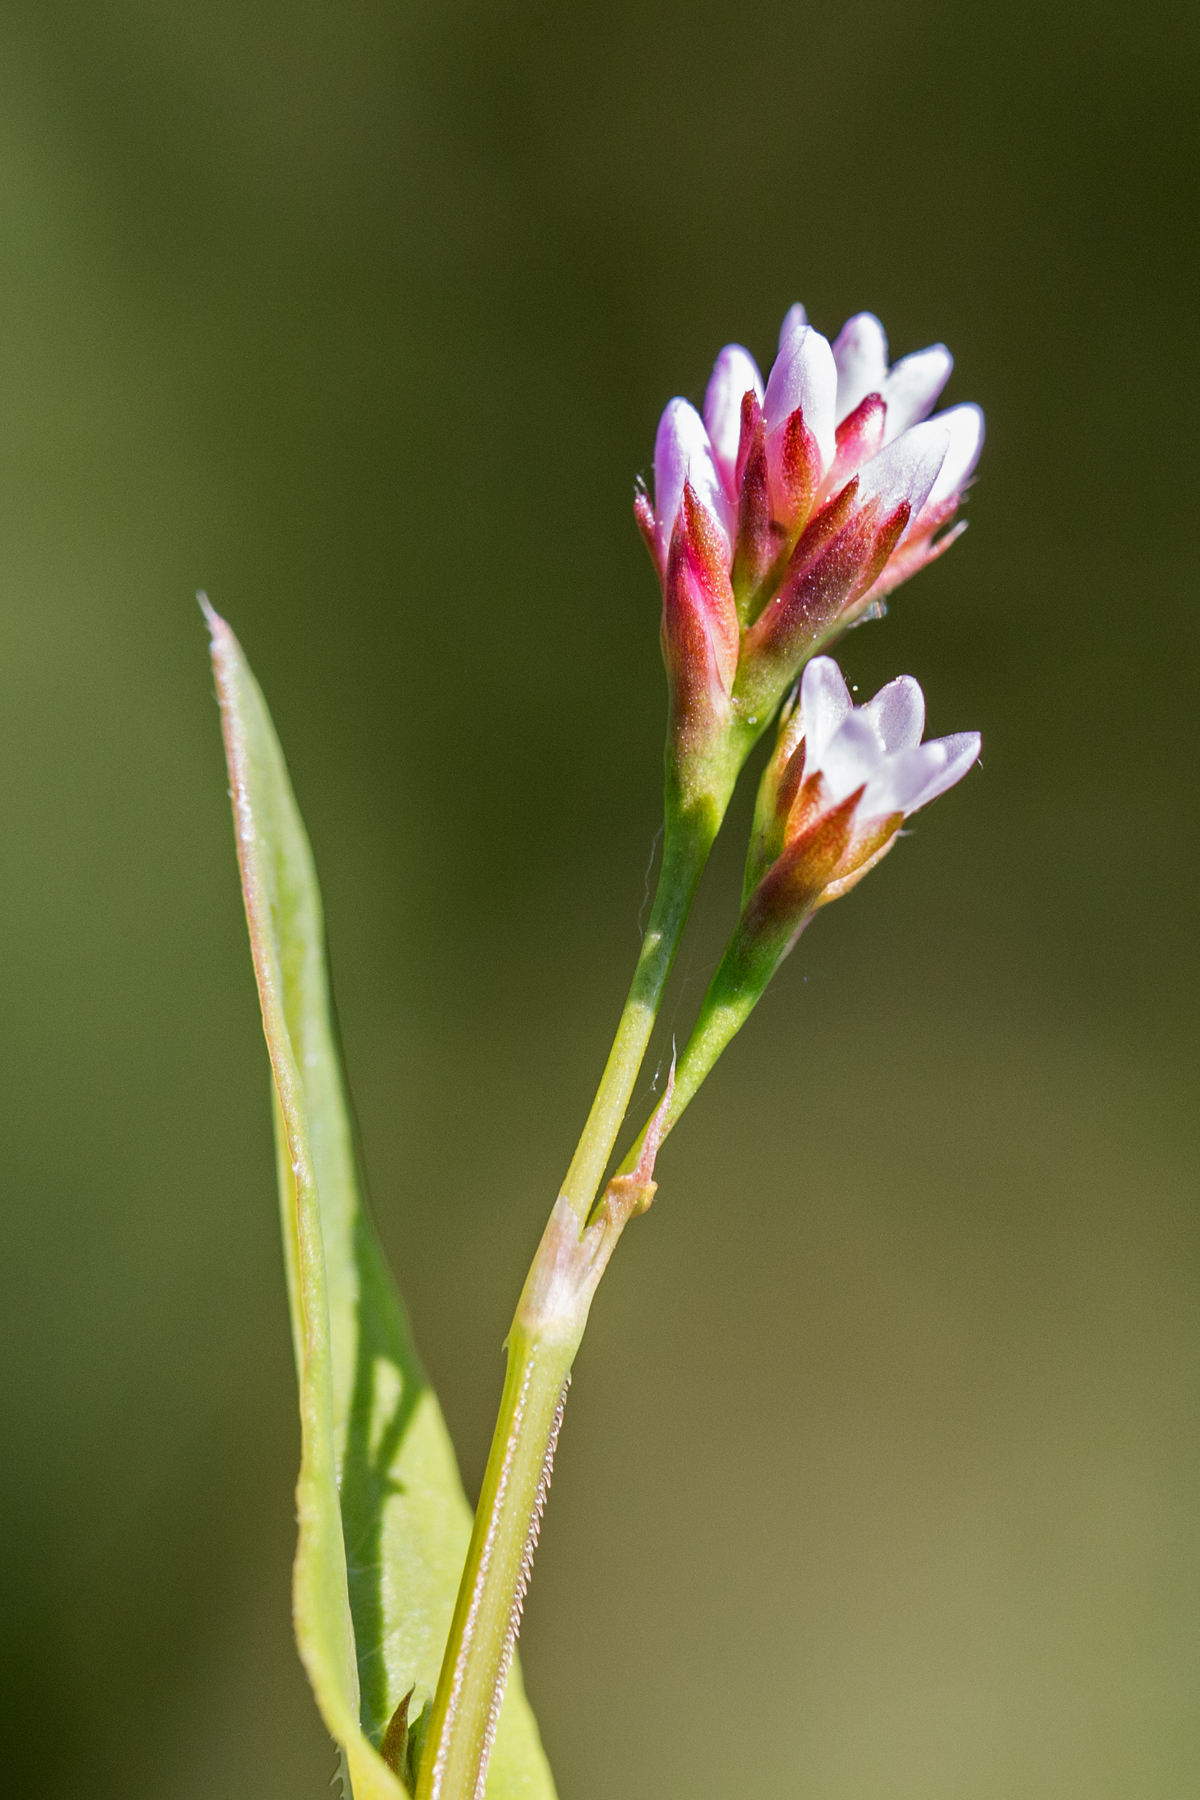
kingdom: Plantae
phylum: Tracheophyta
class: Magnoliopsida
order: Caryophyllales
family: Polygonaceae
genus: Persicaria
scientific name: Persicaria sagittata
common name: American tearthumb
